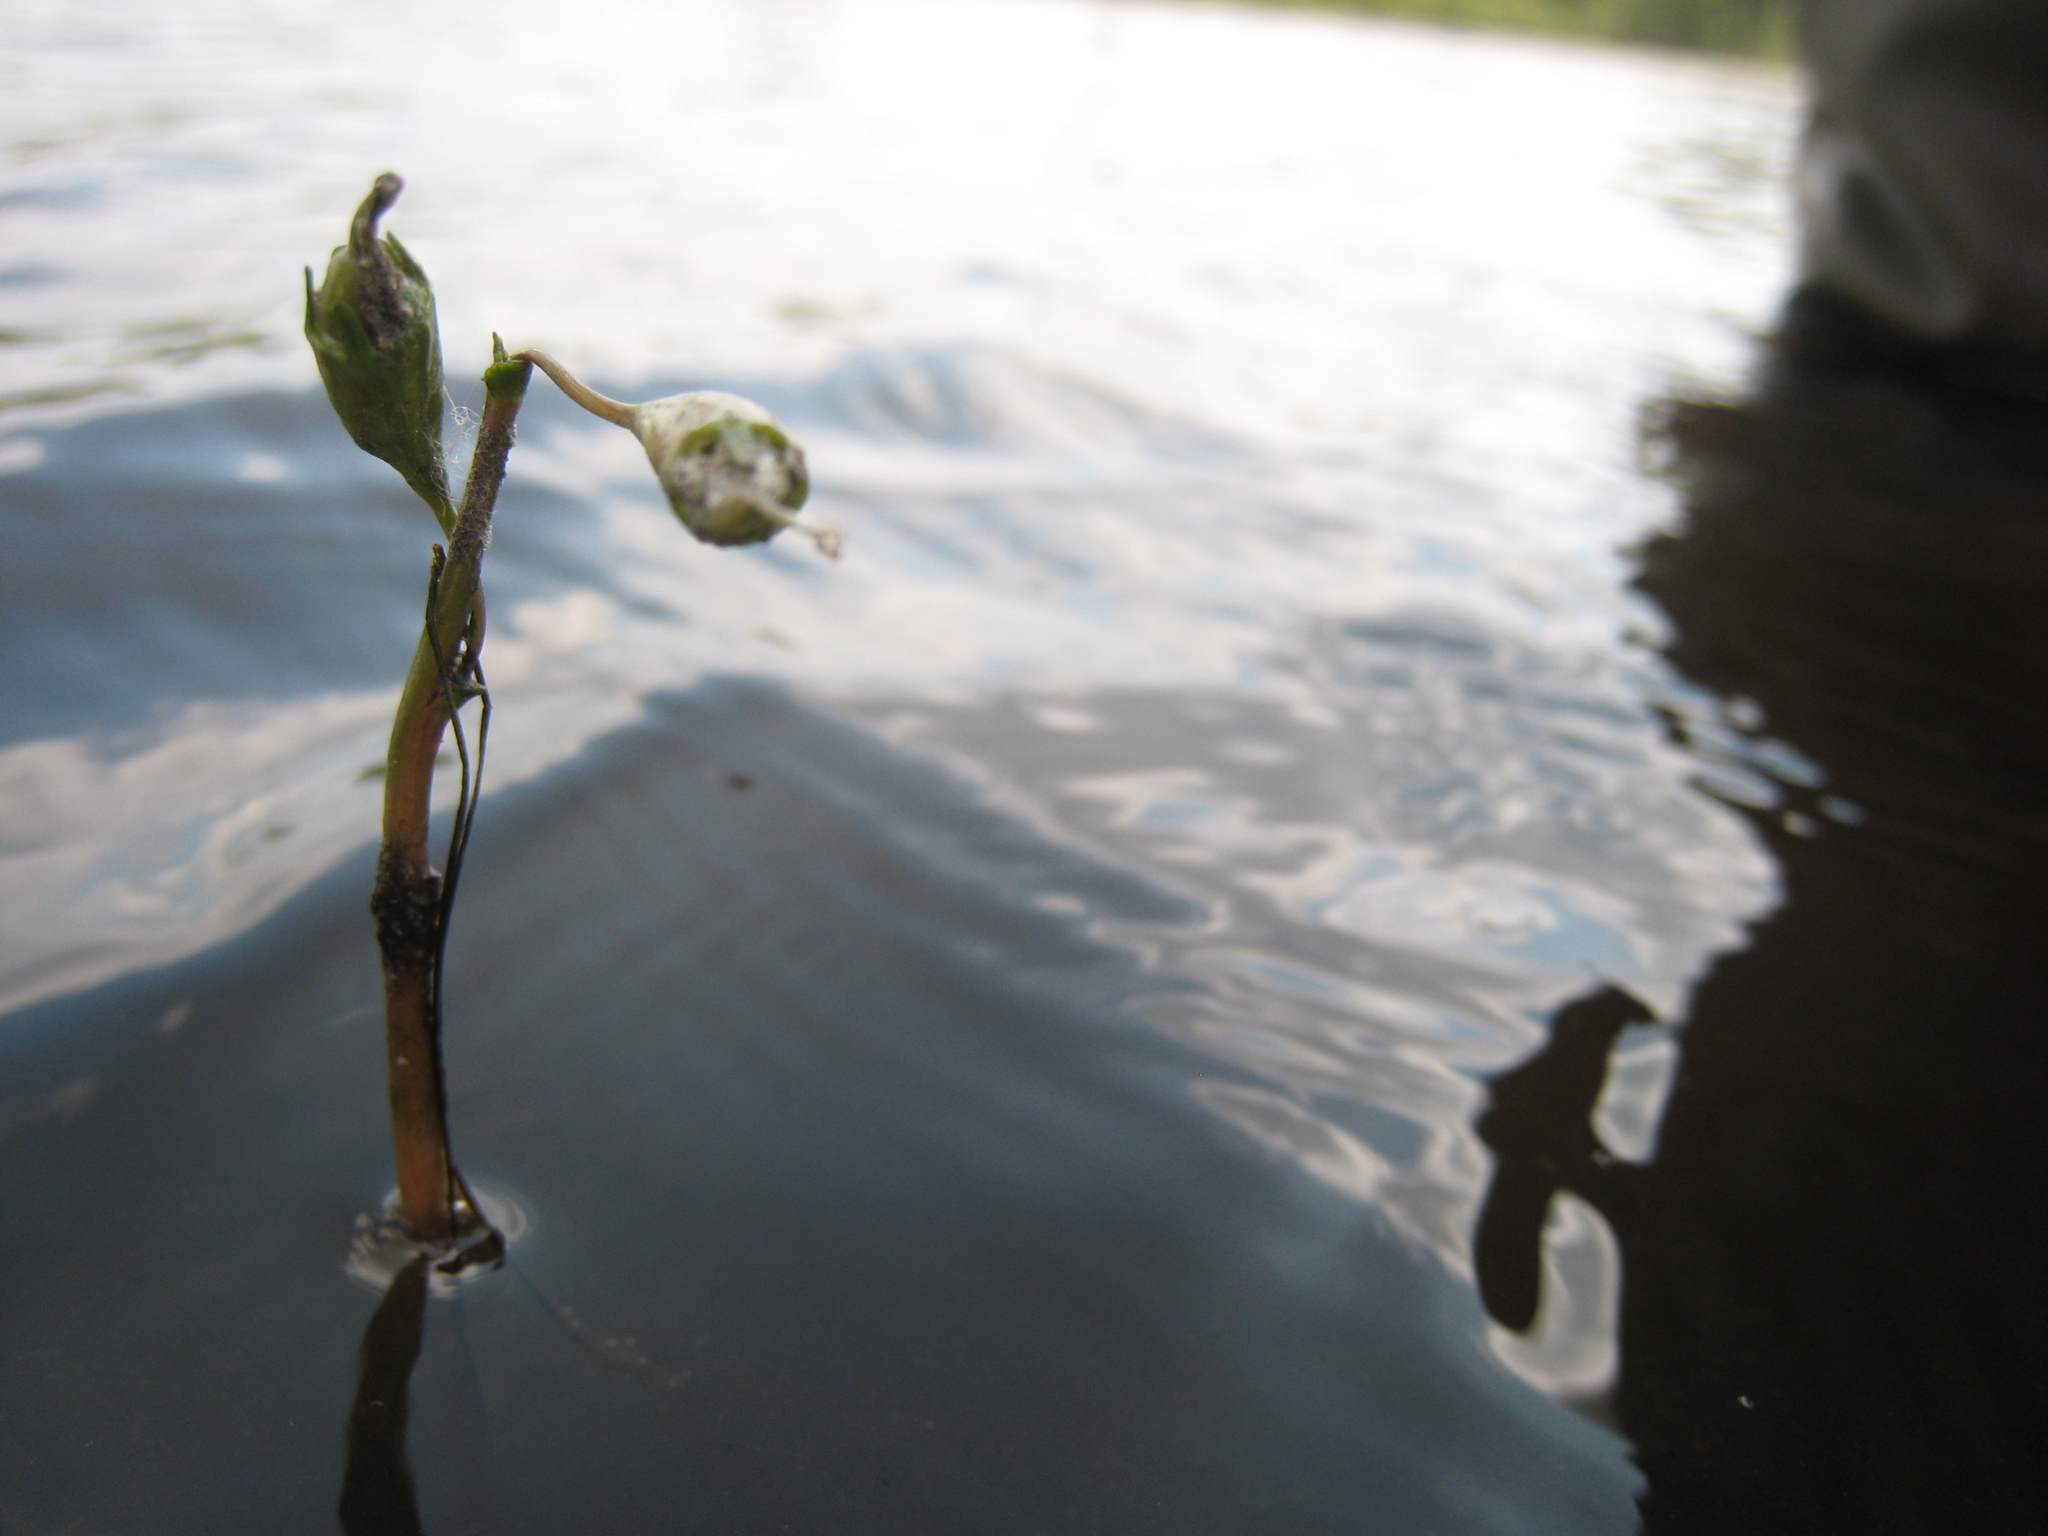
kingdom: Plantae
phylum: Tracheophyta
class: Magnoliopsida
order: Asterales
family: Campanulaceae
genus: Lobelia
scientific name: Lobelia dortmanna
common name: Water lobelia
